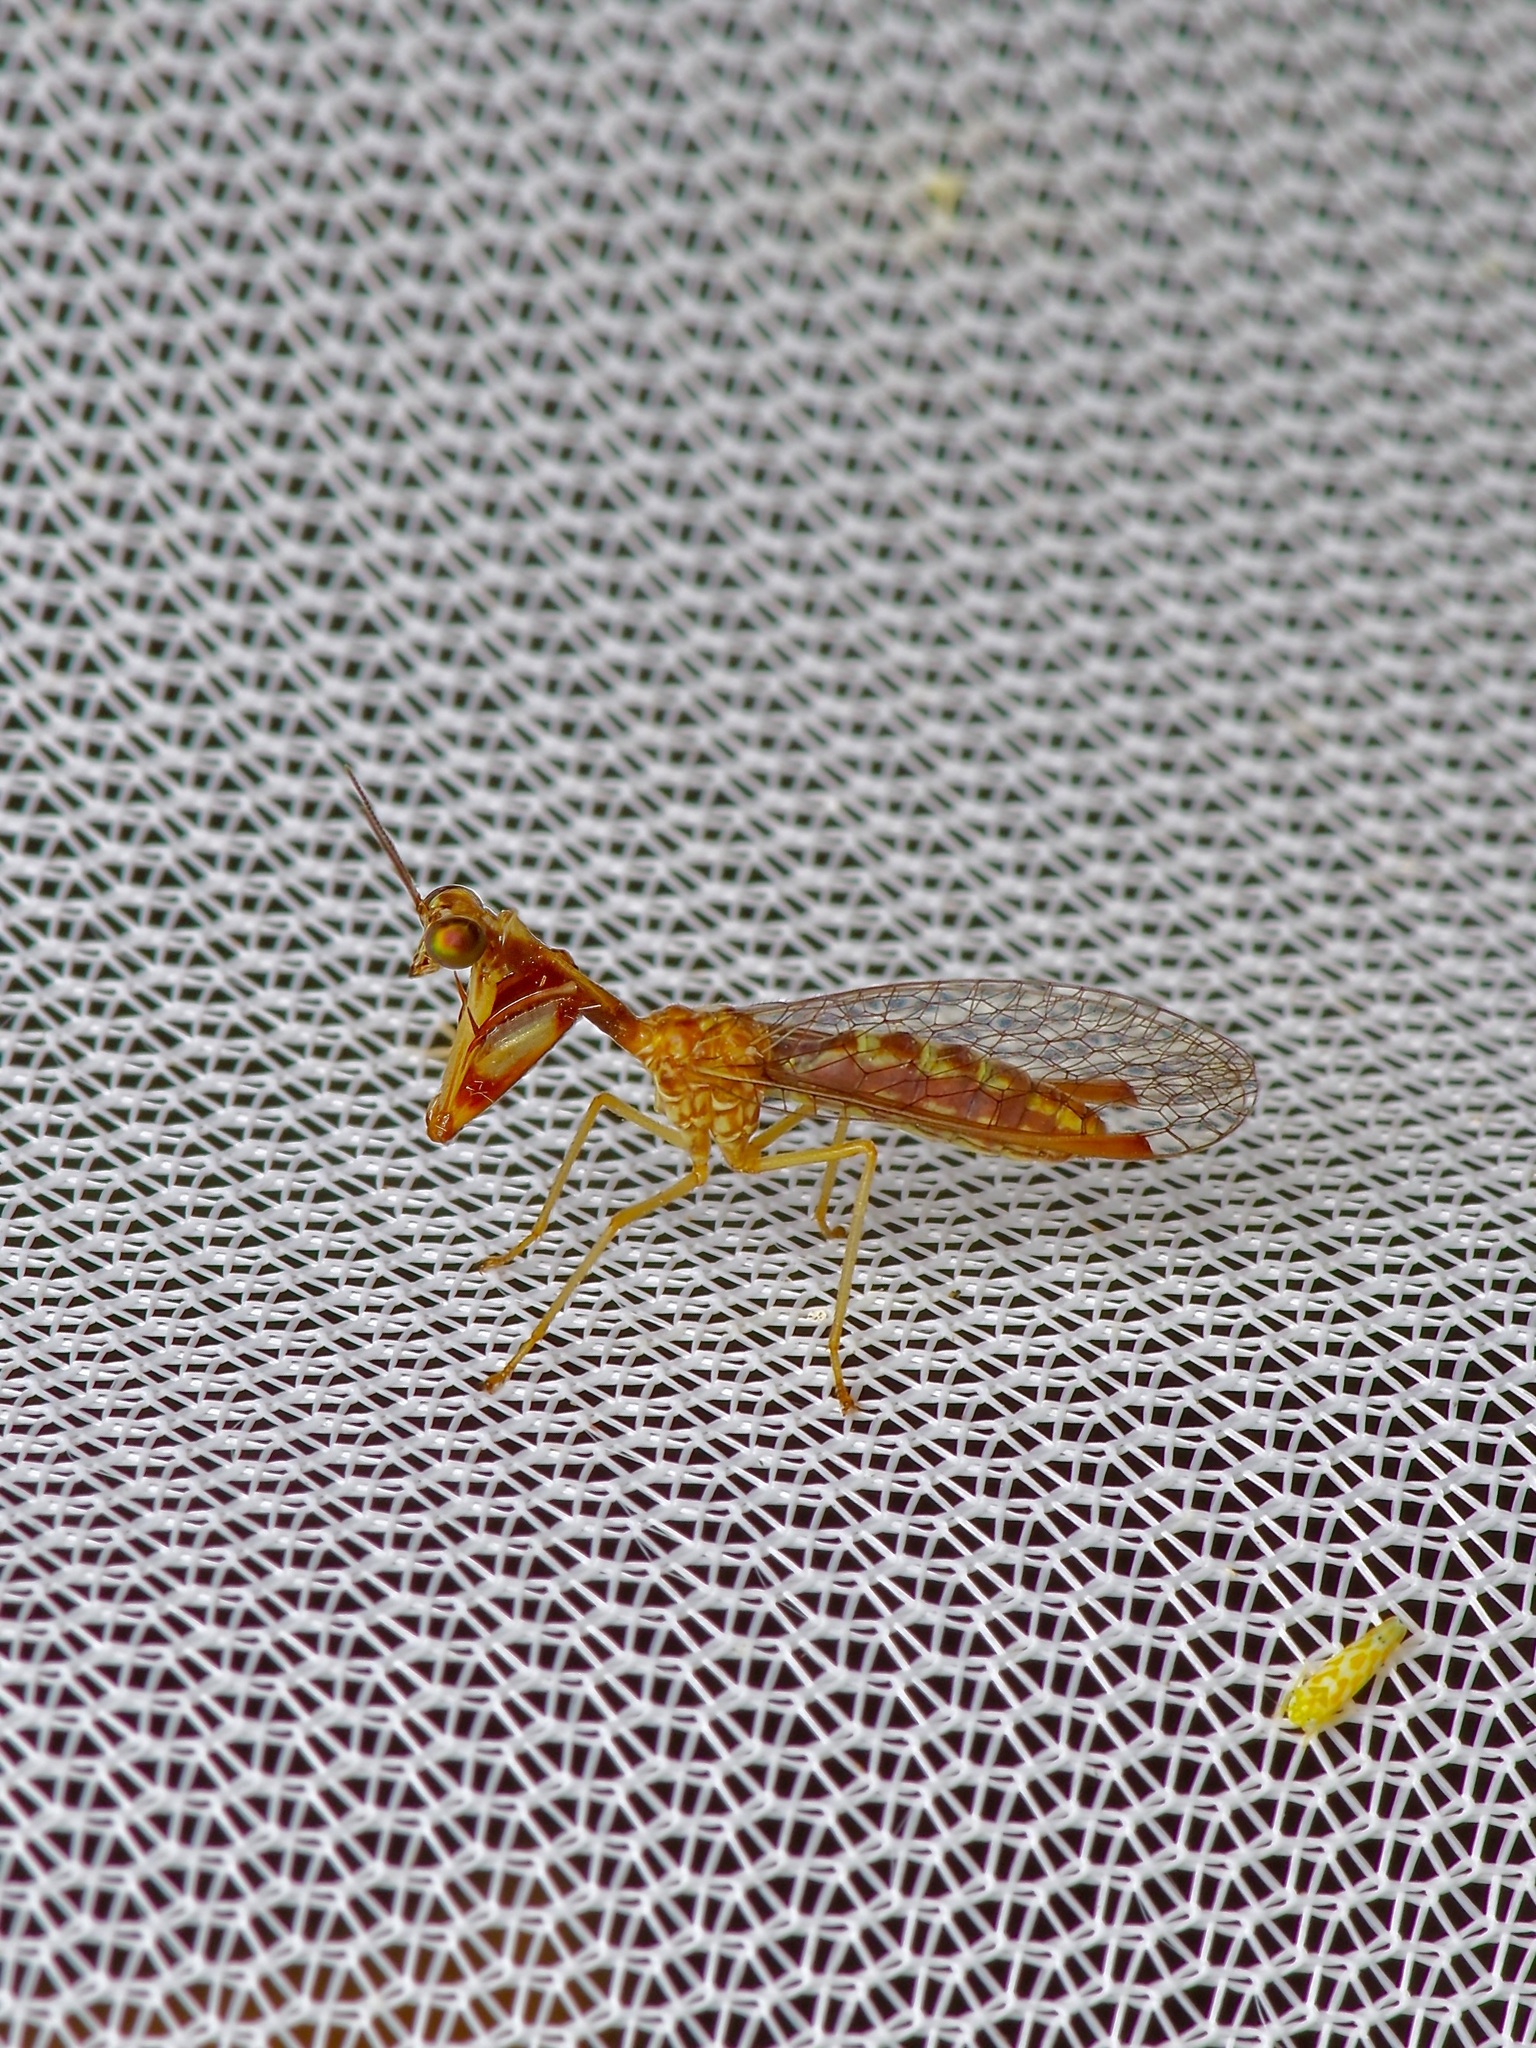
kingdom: Animalia
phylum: Arthropoda
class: Insecta
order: Neuroptera
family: Mantispidae
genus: Leptomantispa
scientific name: Leptomantispa pulchella
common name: Stevens's mantidfly
